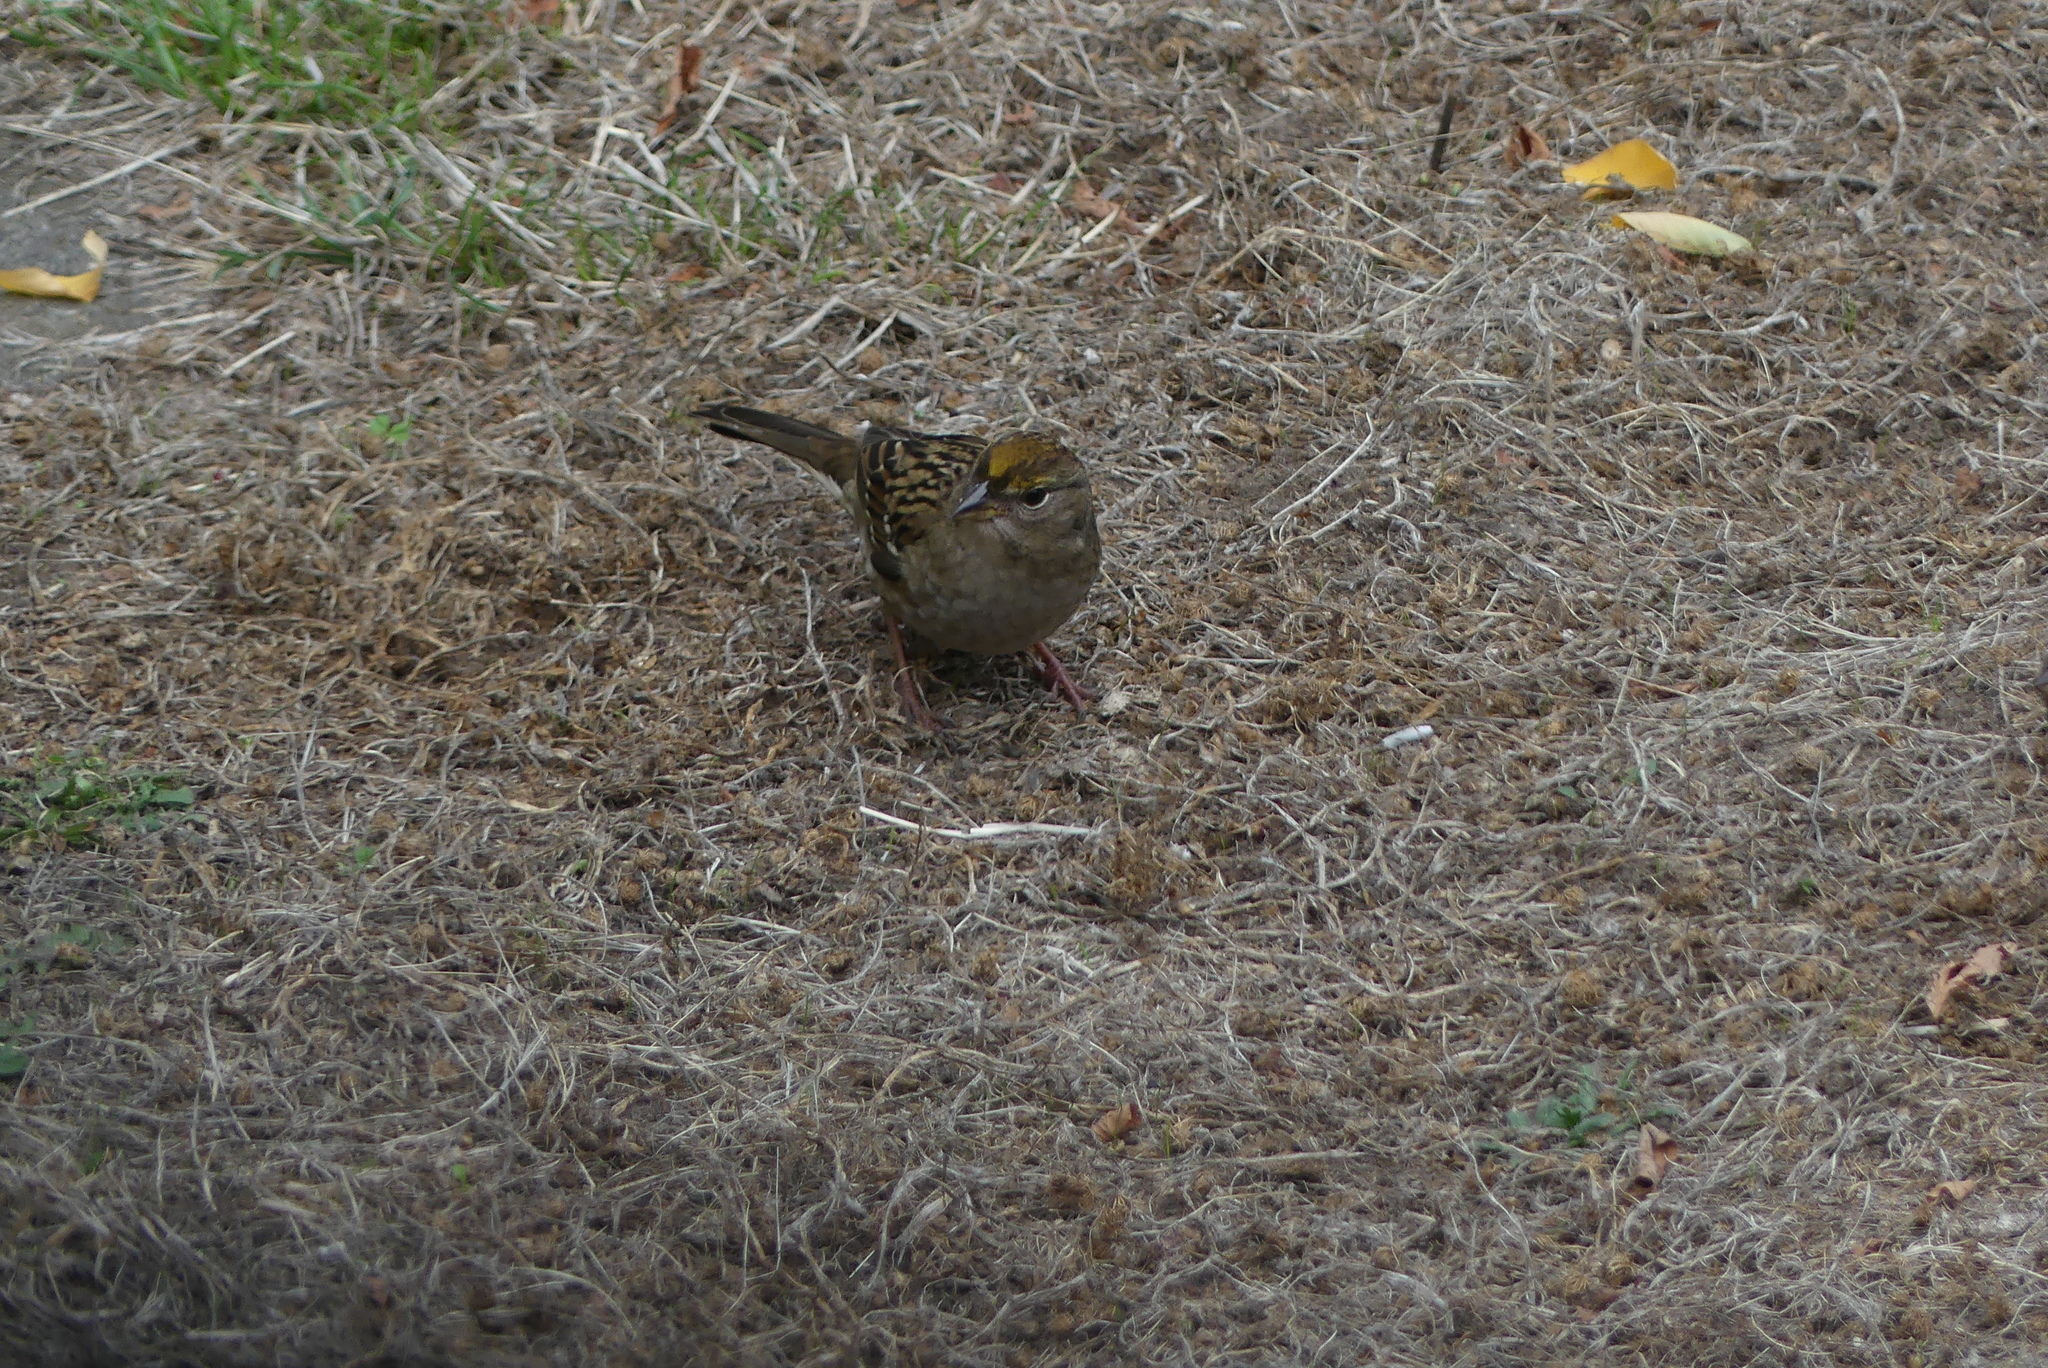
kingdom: Animalia
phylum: Chordata
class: Aves
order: Passeriformes
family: Passerellidae
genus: Zonotrichia
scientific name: Zonotrichia atricapilla
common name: Golden-crowned sparrow
